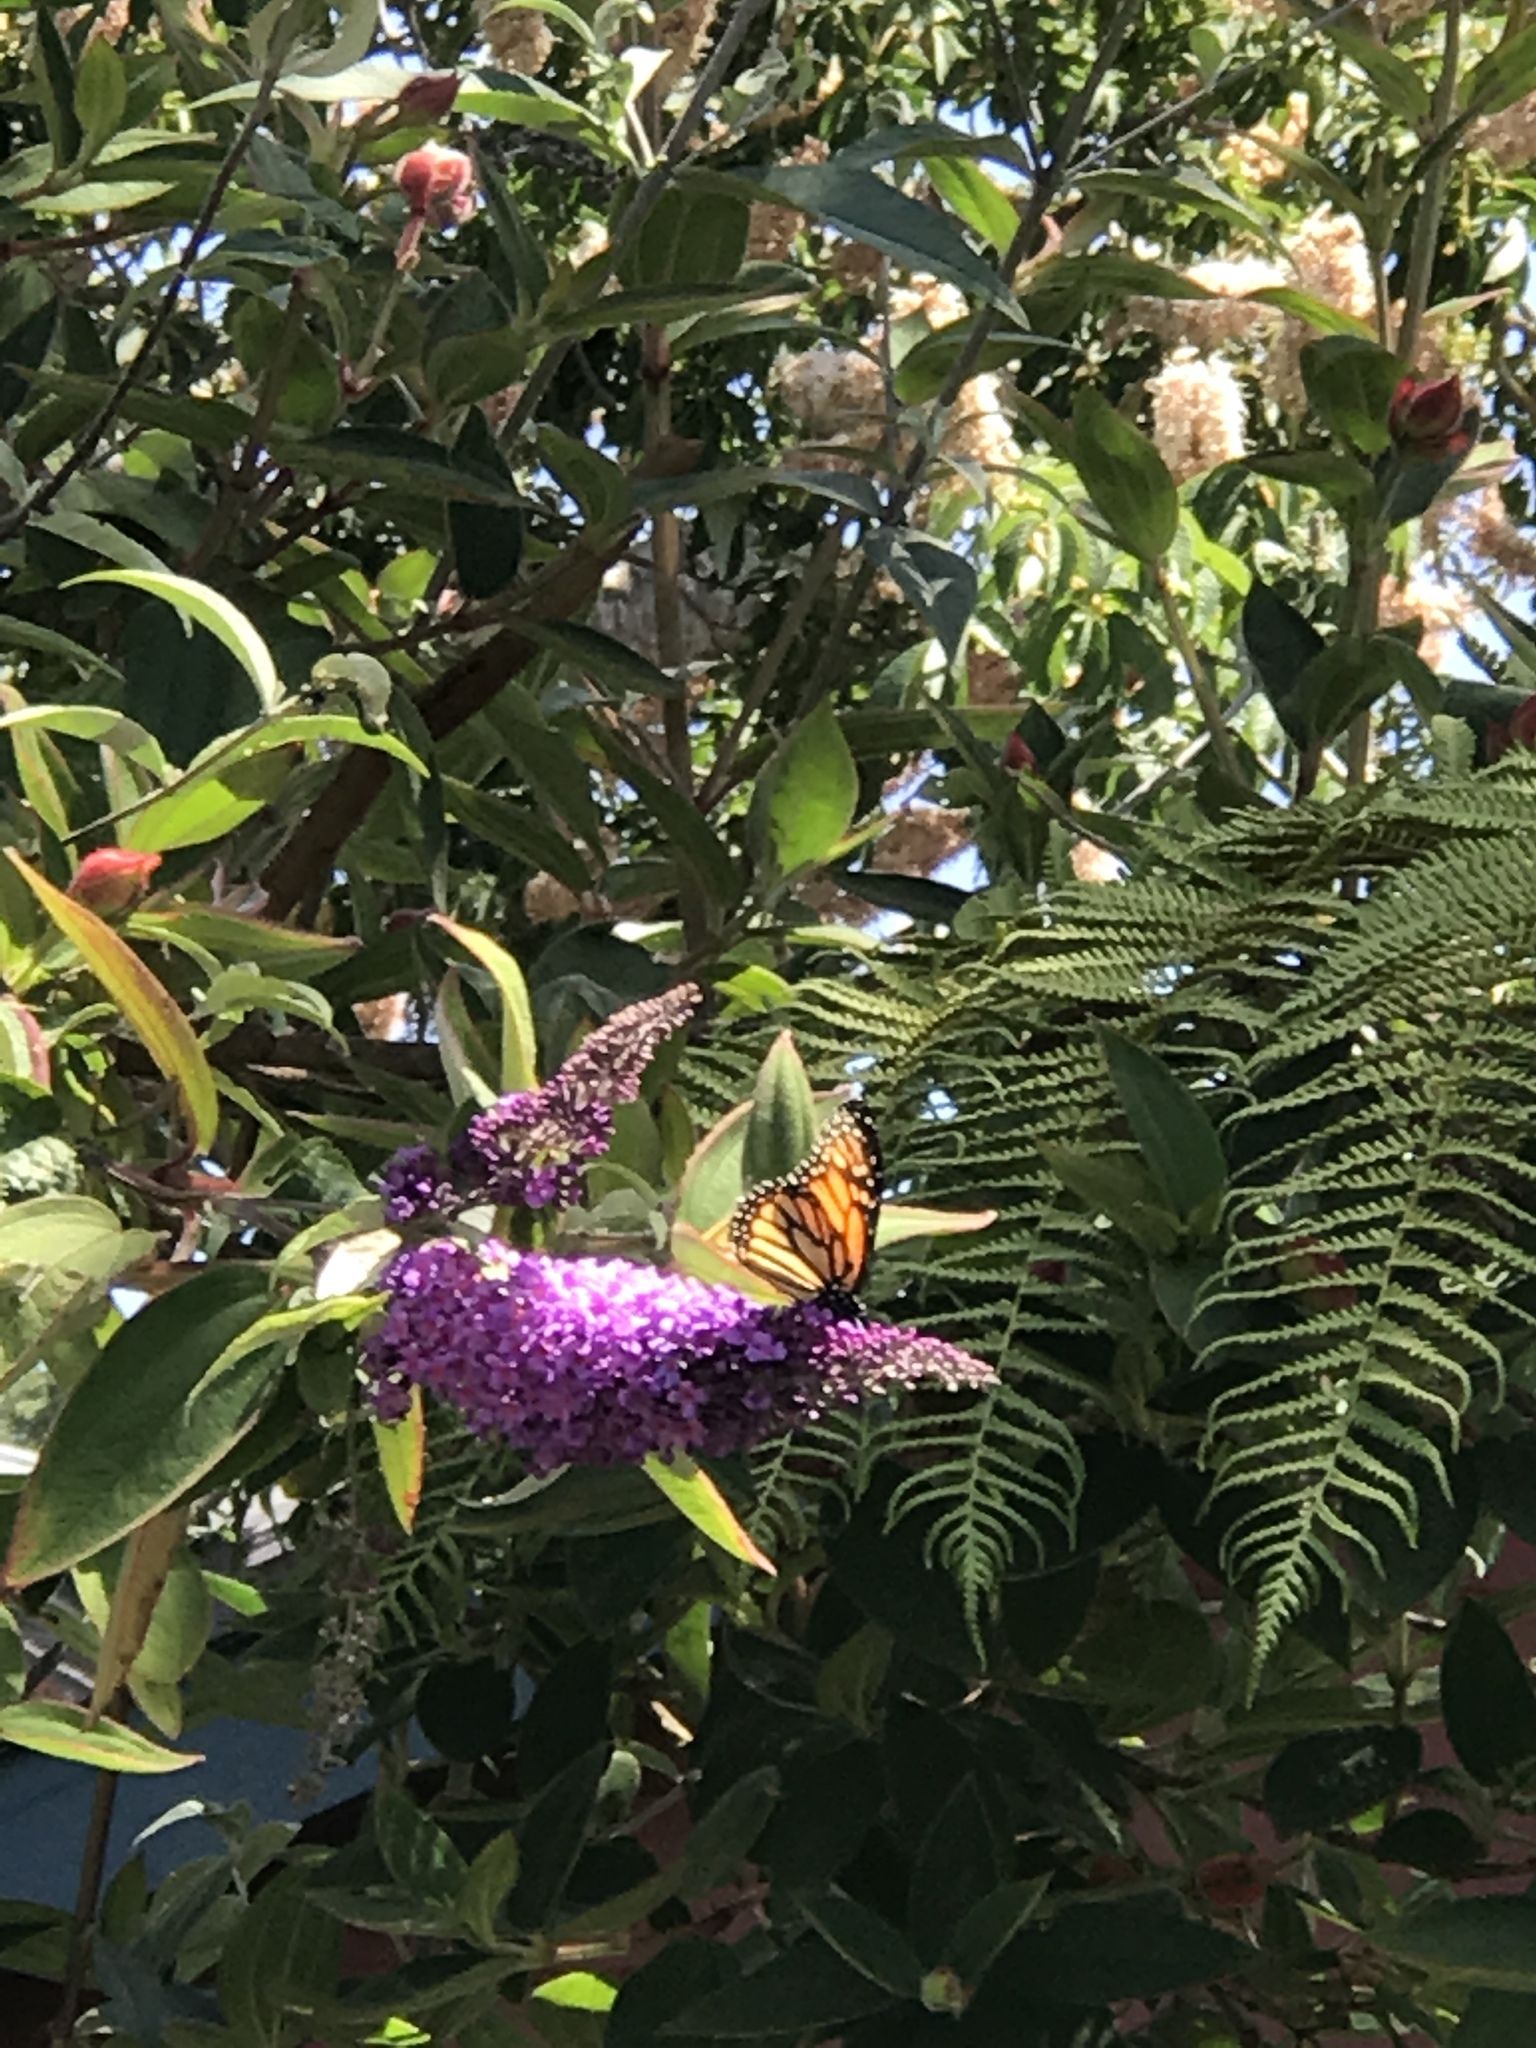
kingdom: Animalia
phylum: Arthropoda
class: Insecta
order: Lepidoptera
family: Nymphalidae
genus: Danaus
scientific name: Danaus plexippus
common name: Monarch
